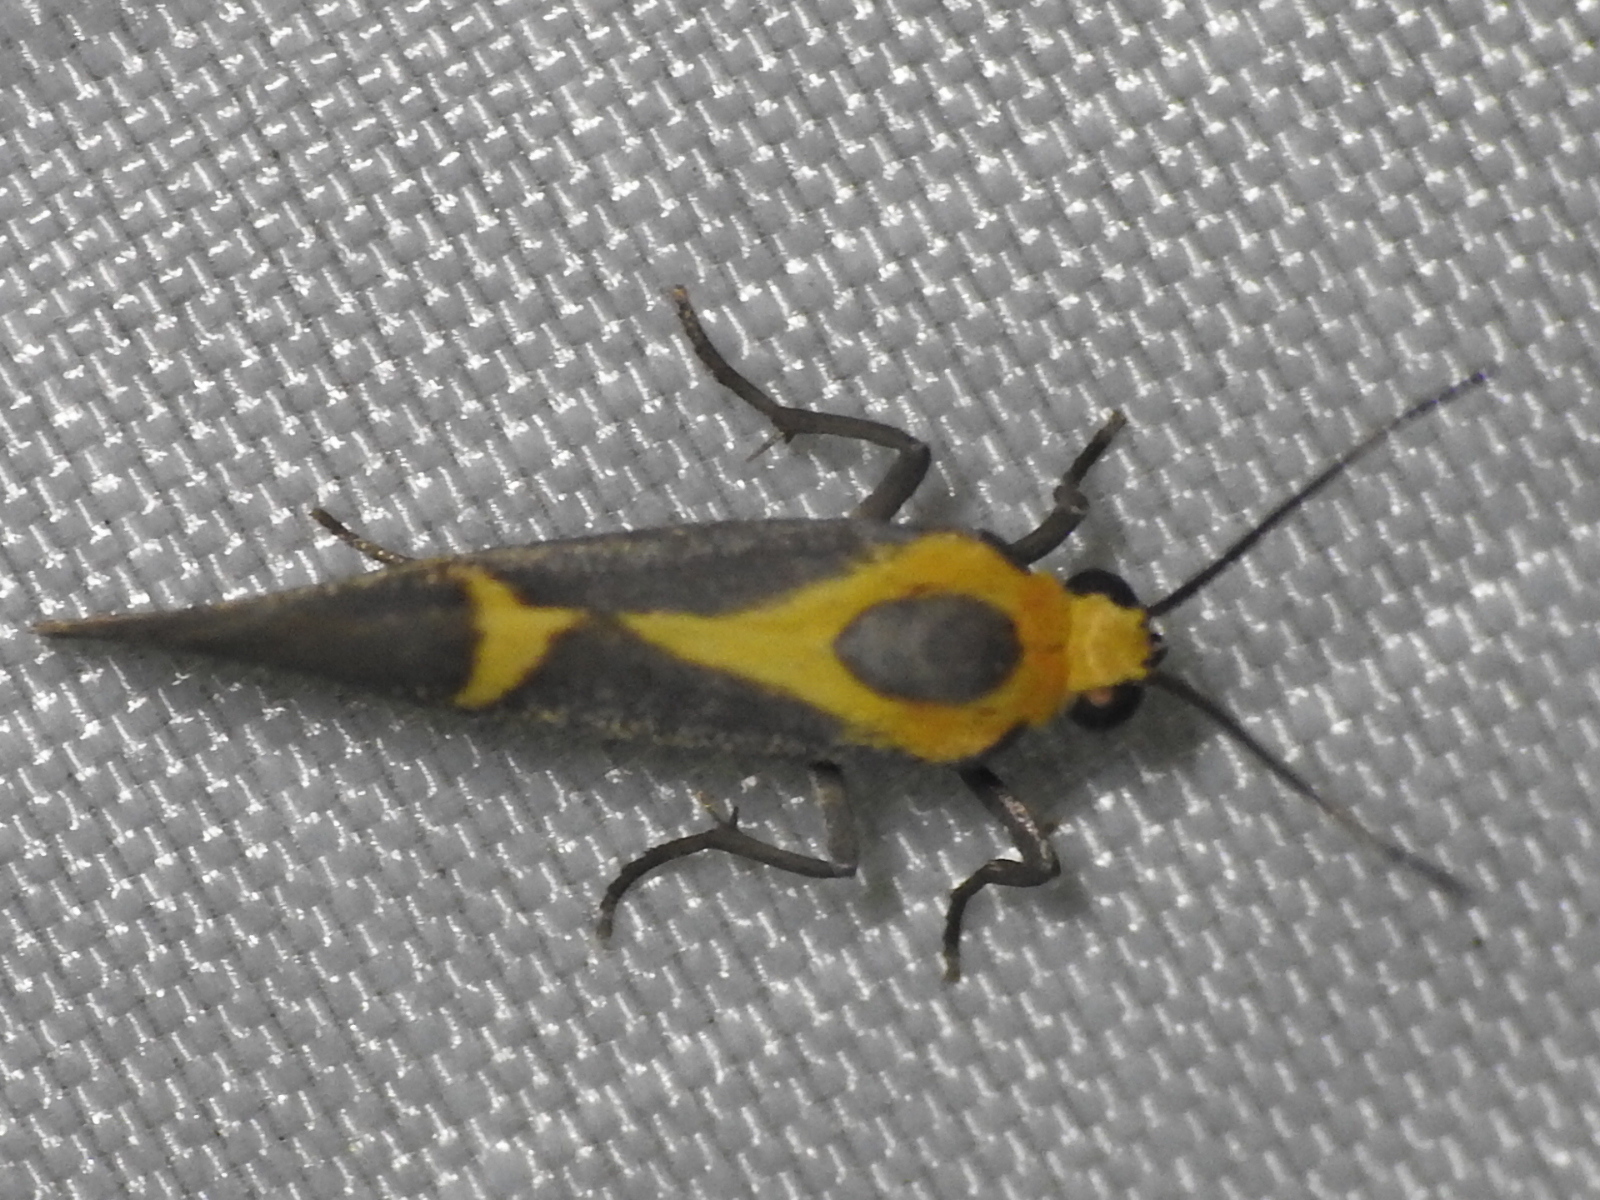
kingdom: Animalia
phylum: Arthropoda
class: Insecta
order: Lepidoptera
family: Erebidae
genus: Cisthene
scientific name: Cisthene tenuifascia
